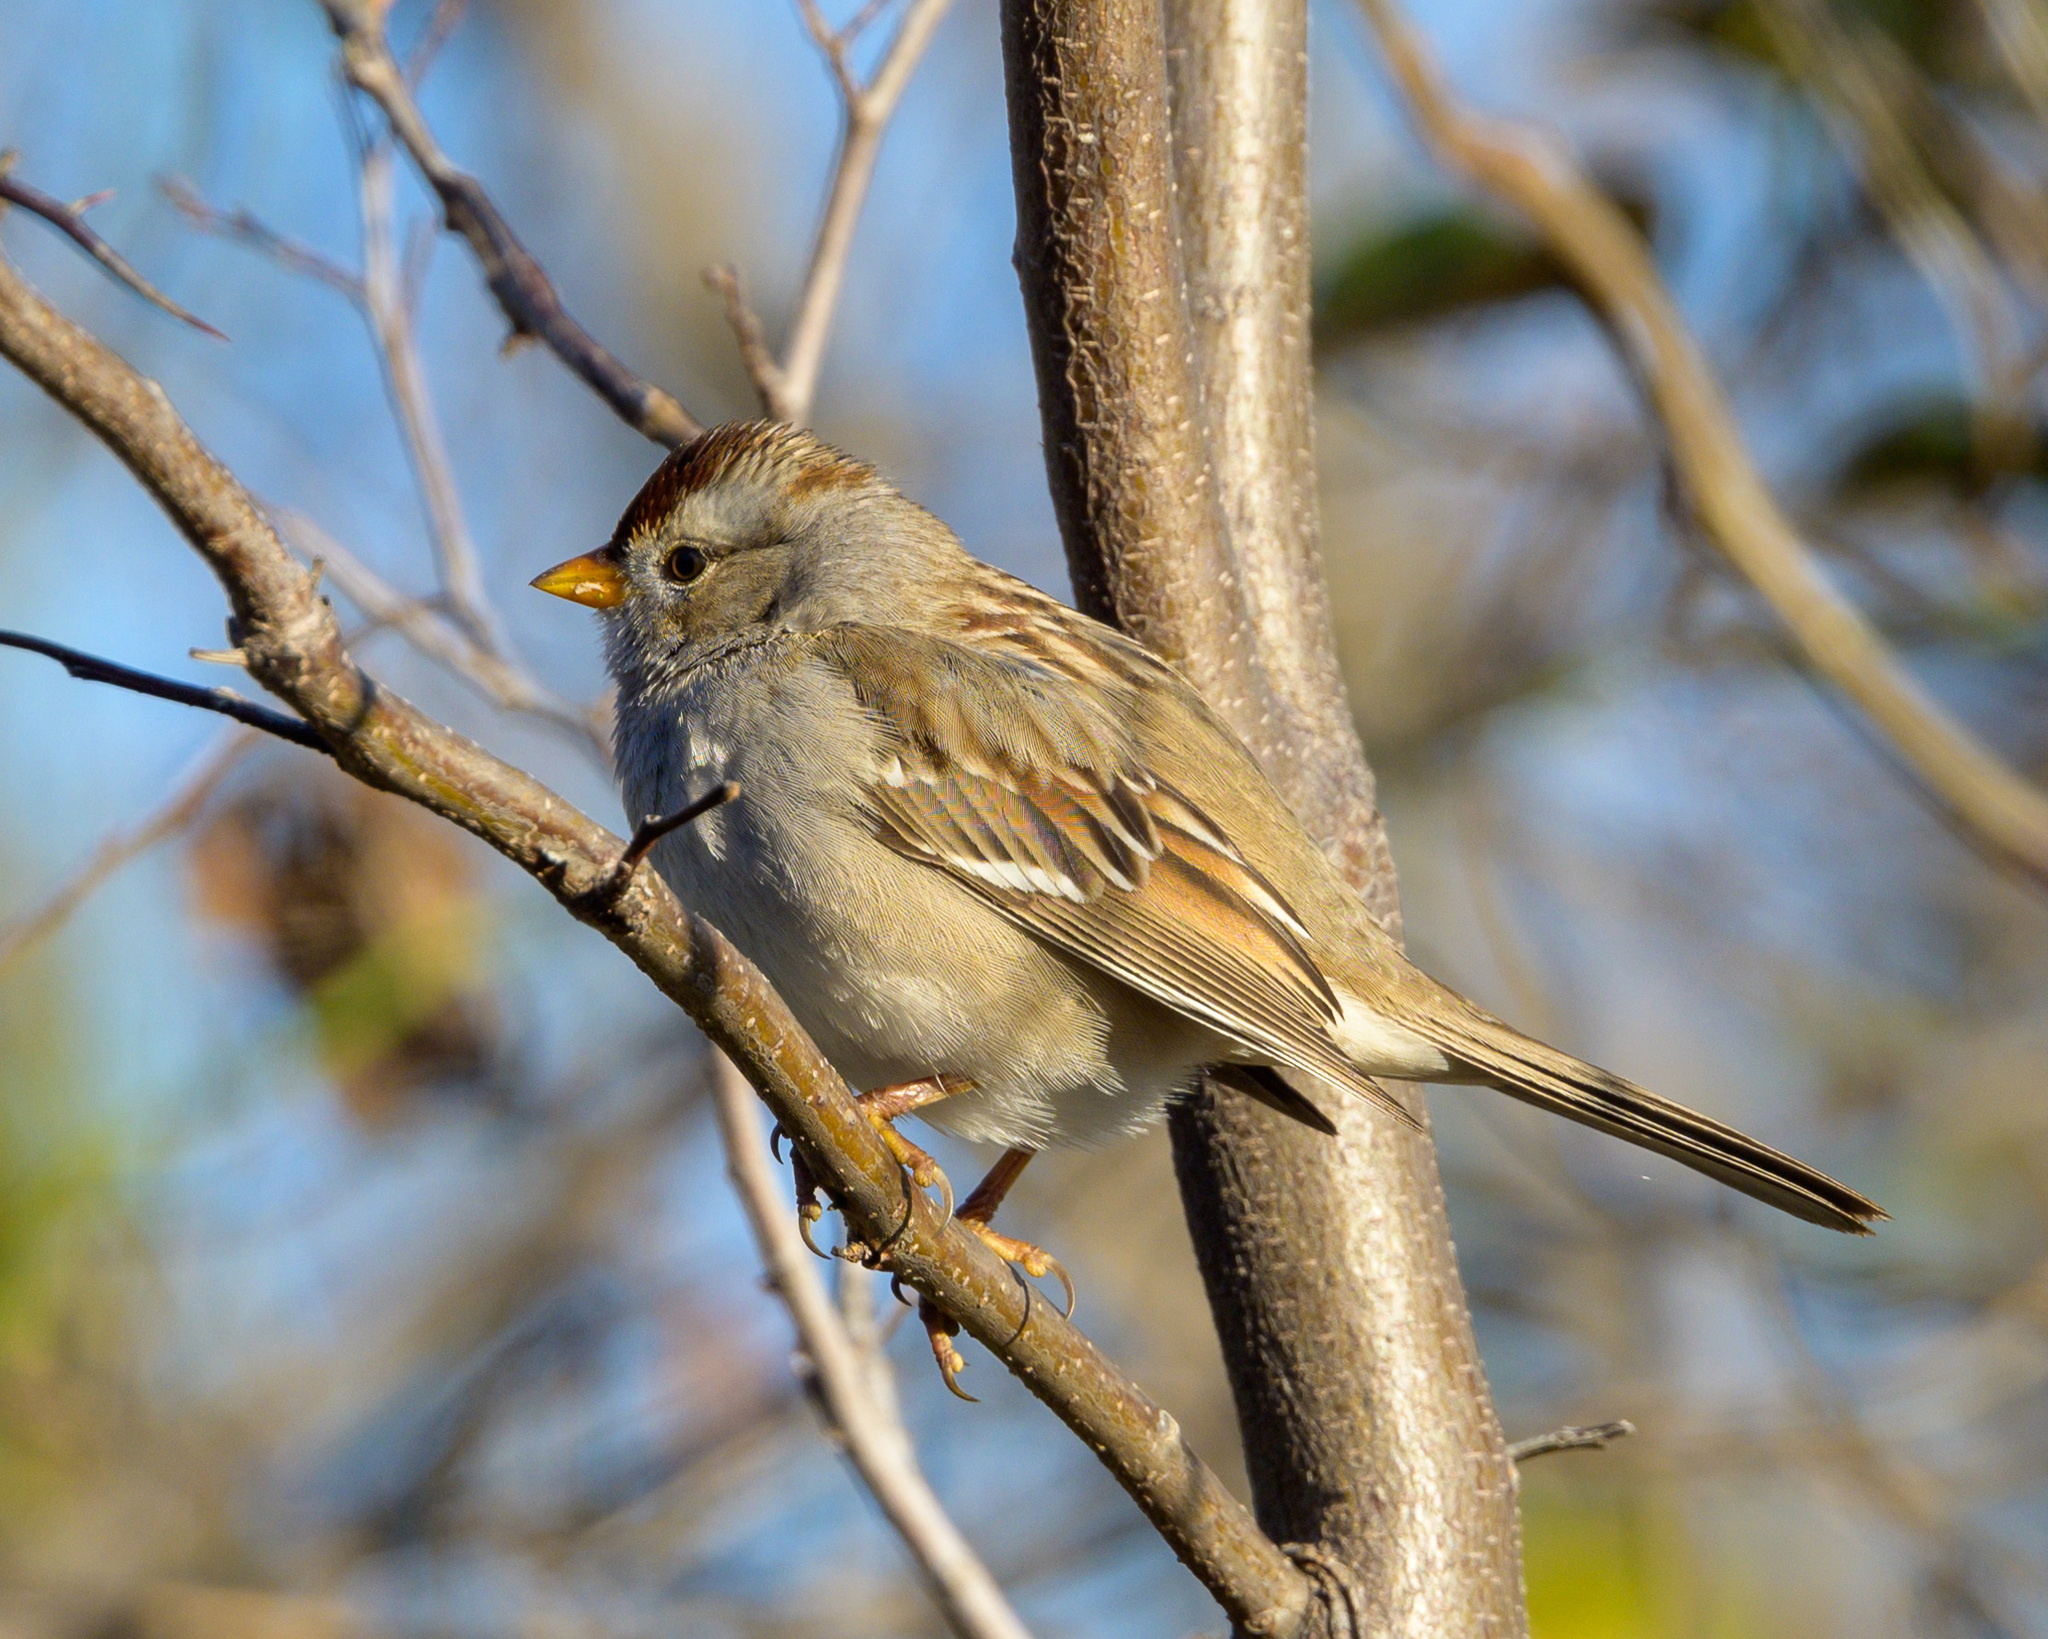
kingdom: Animalia
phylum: Chordata
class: Aves
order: Passeriformes
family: Passerellidae
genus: Zonotrichia
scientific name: Zonotrichia leucophrys
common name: White-crowned sparrow
